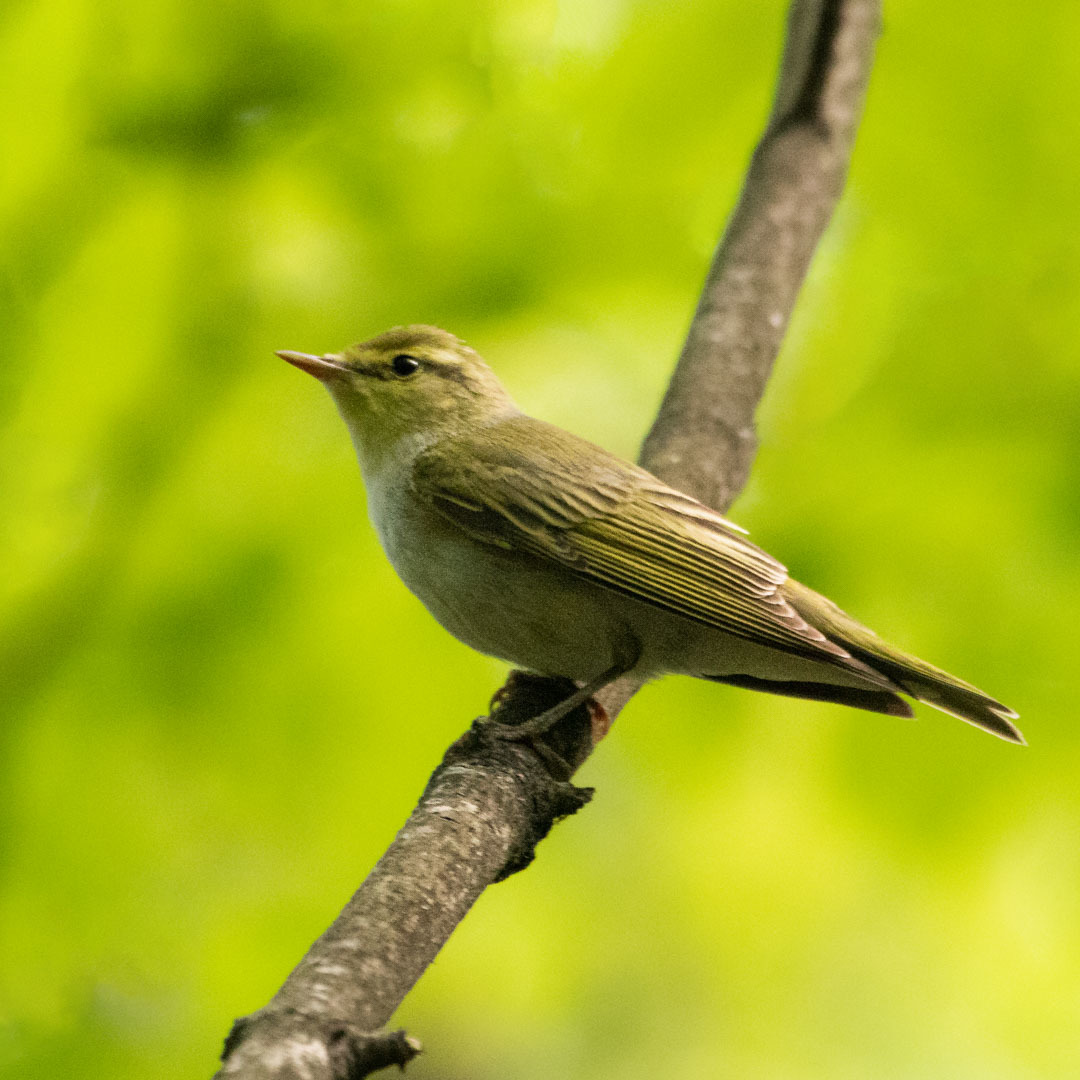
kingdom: Animalia
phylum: Chordata
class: Aves
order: Passeriformes
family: Phylloscopidae
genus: Phylloscopus
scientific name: Phylloscopus sibillatrix
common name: Wood warbler
